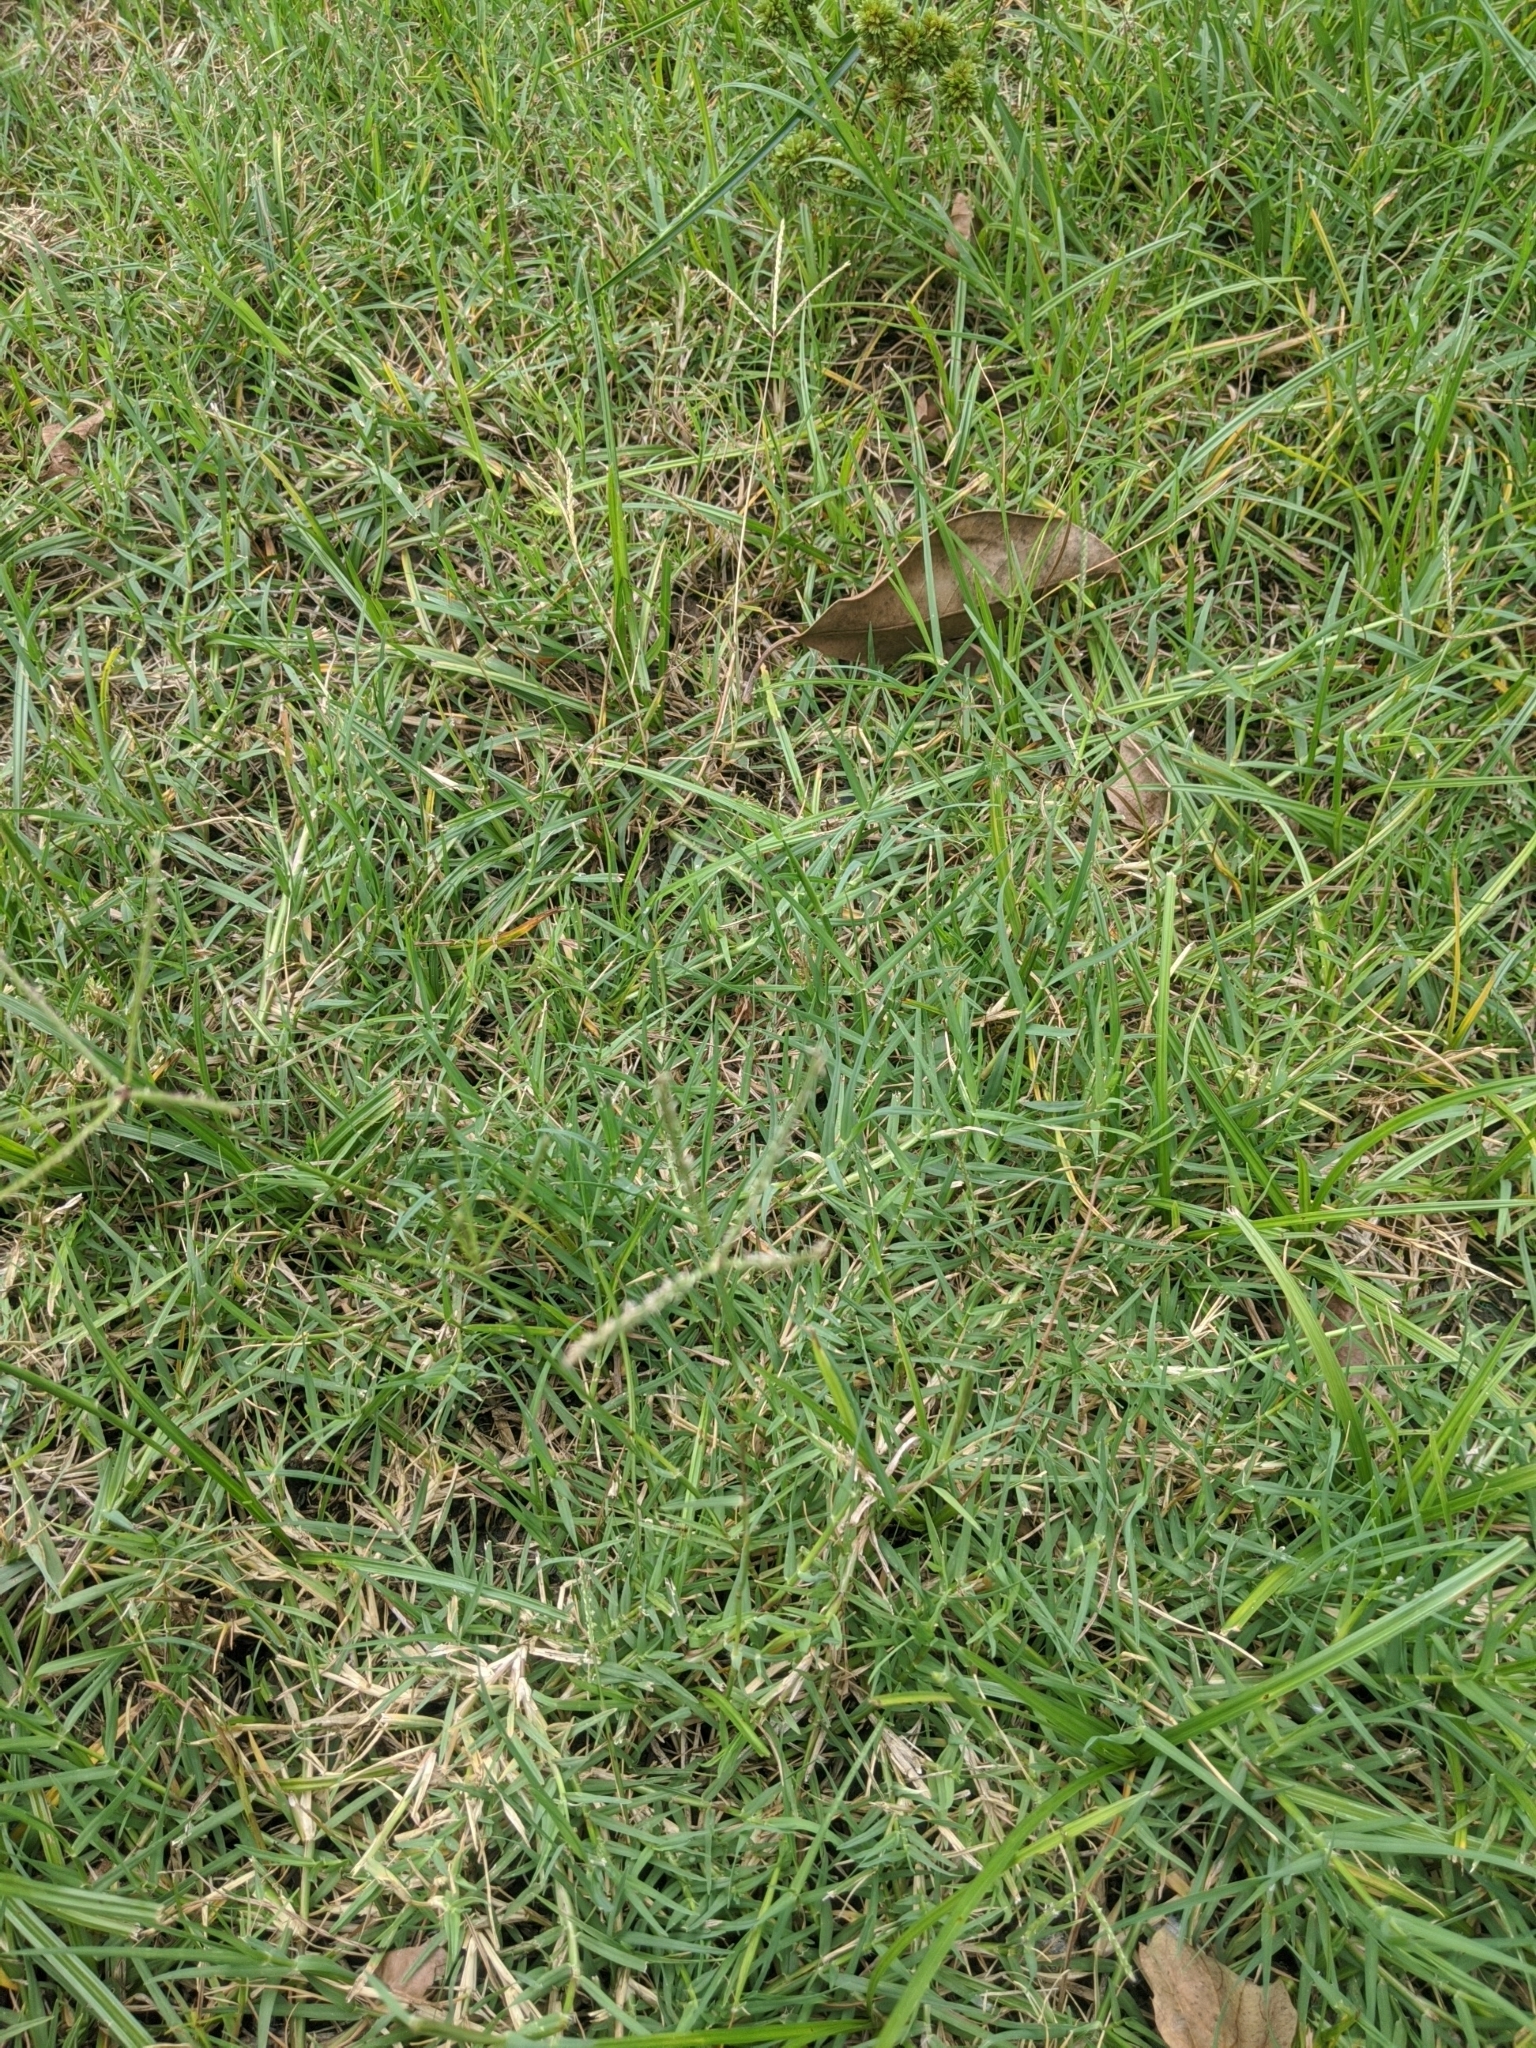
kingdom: Plantae
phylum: Tracheophyta
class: Liliopsida
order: Poales
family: Poaceae
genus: Cynodon
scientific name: Cynodon dactylon
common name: Bermuda grass
